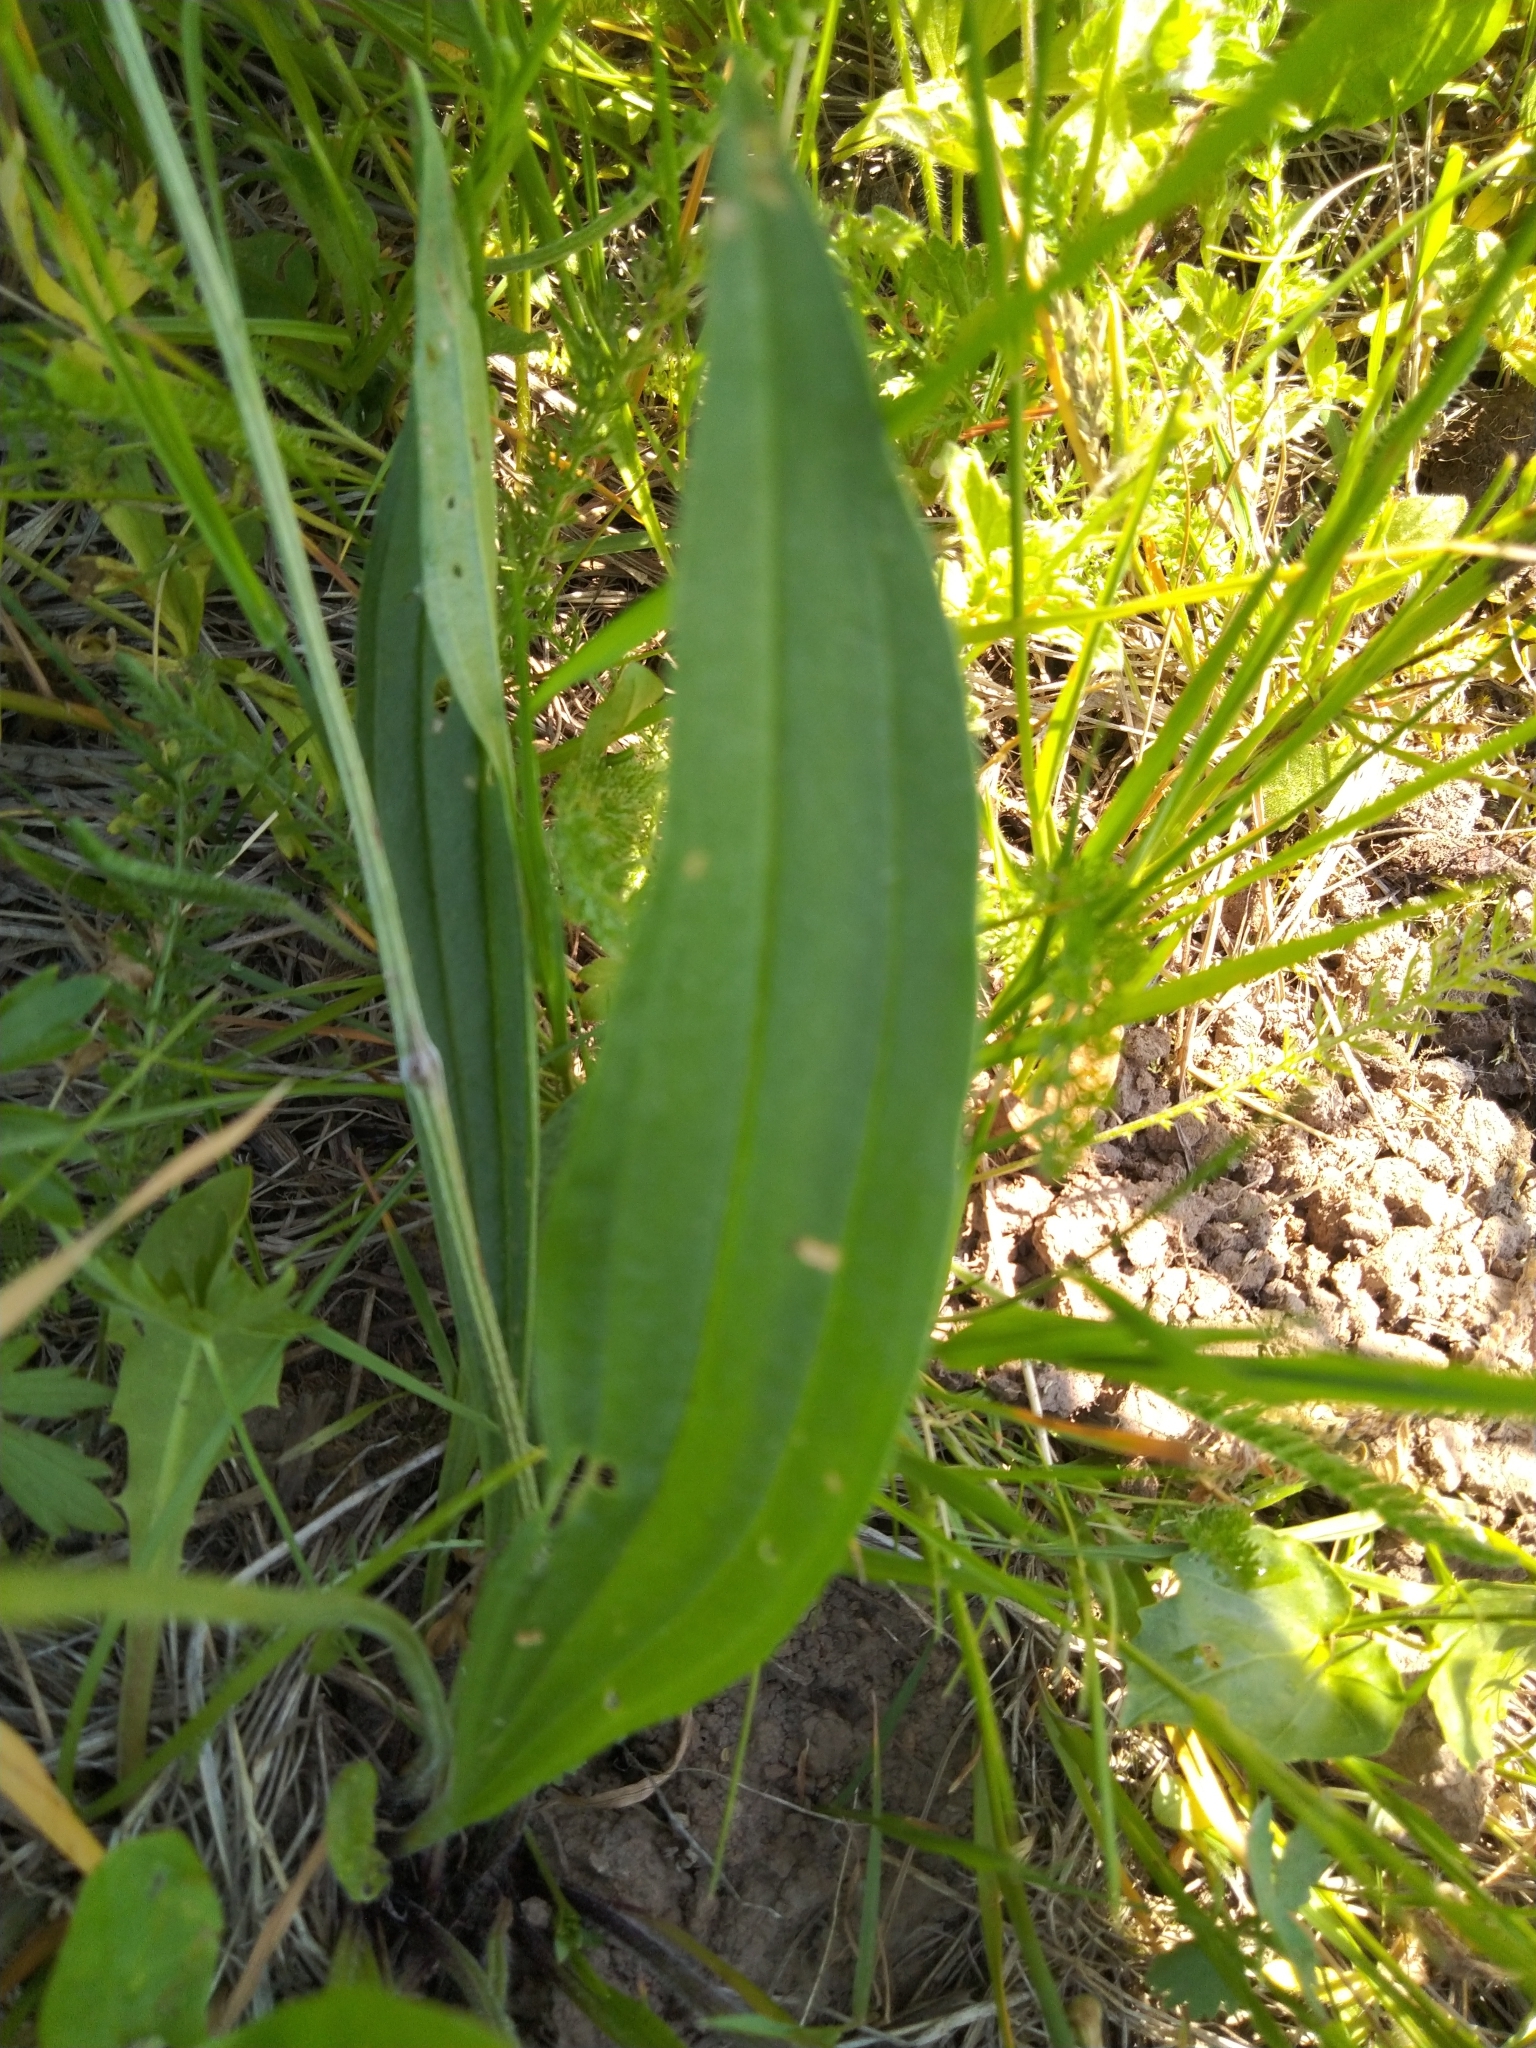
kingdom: Plantae
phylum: Tracheophyta
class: Magnoliopsida
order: Lamiales
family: Plantaginaceae
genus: Plantago
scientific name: Plantago lanceolata
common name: Ribwort plantain
